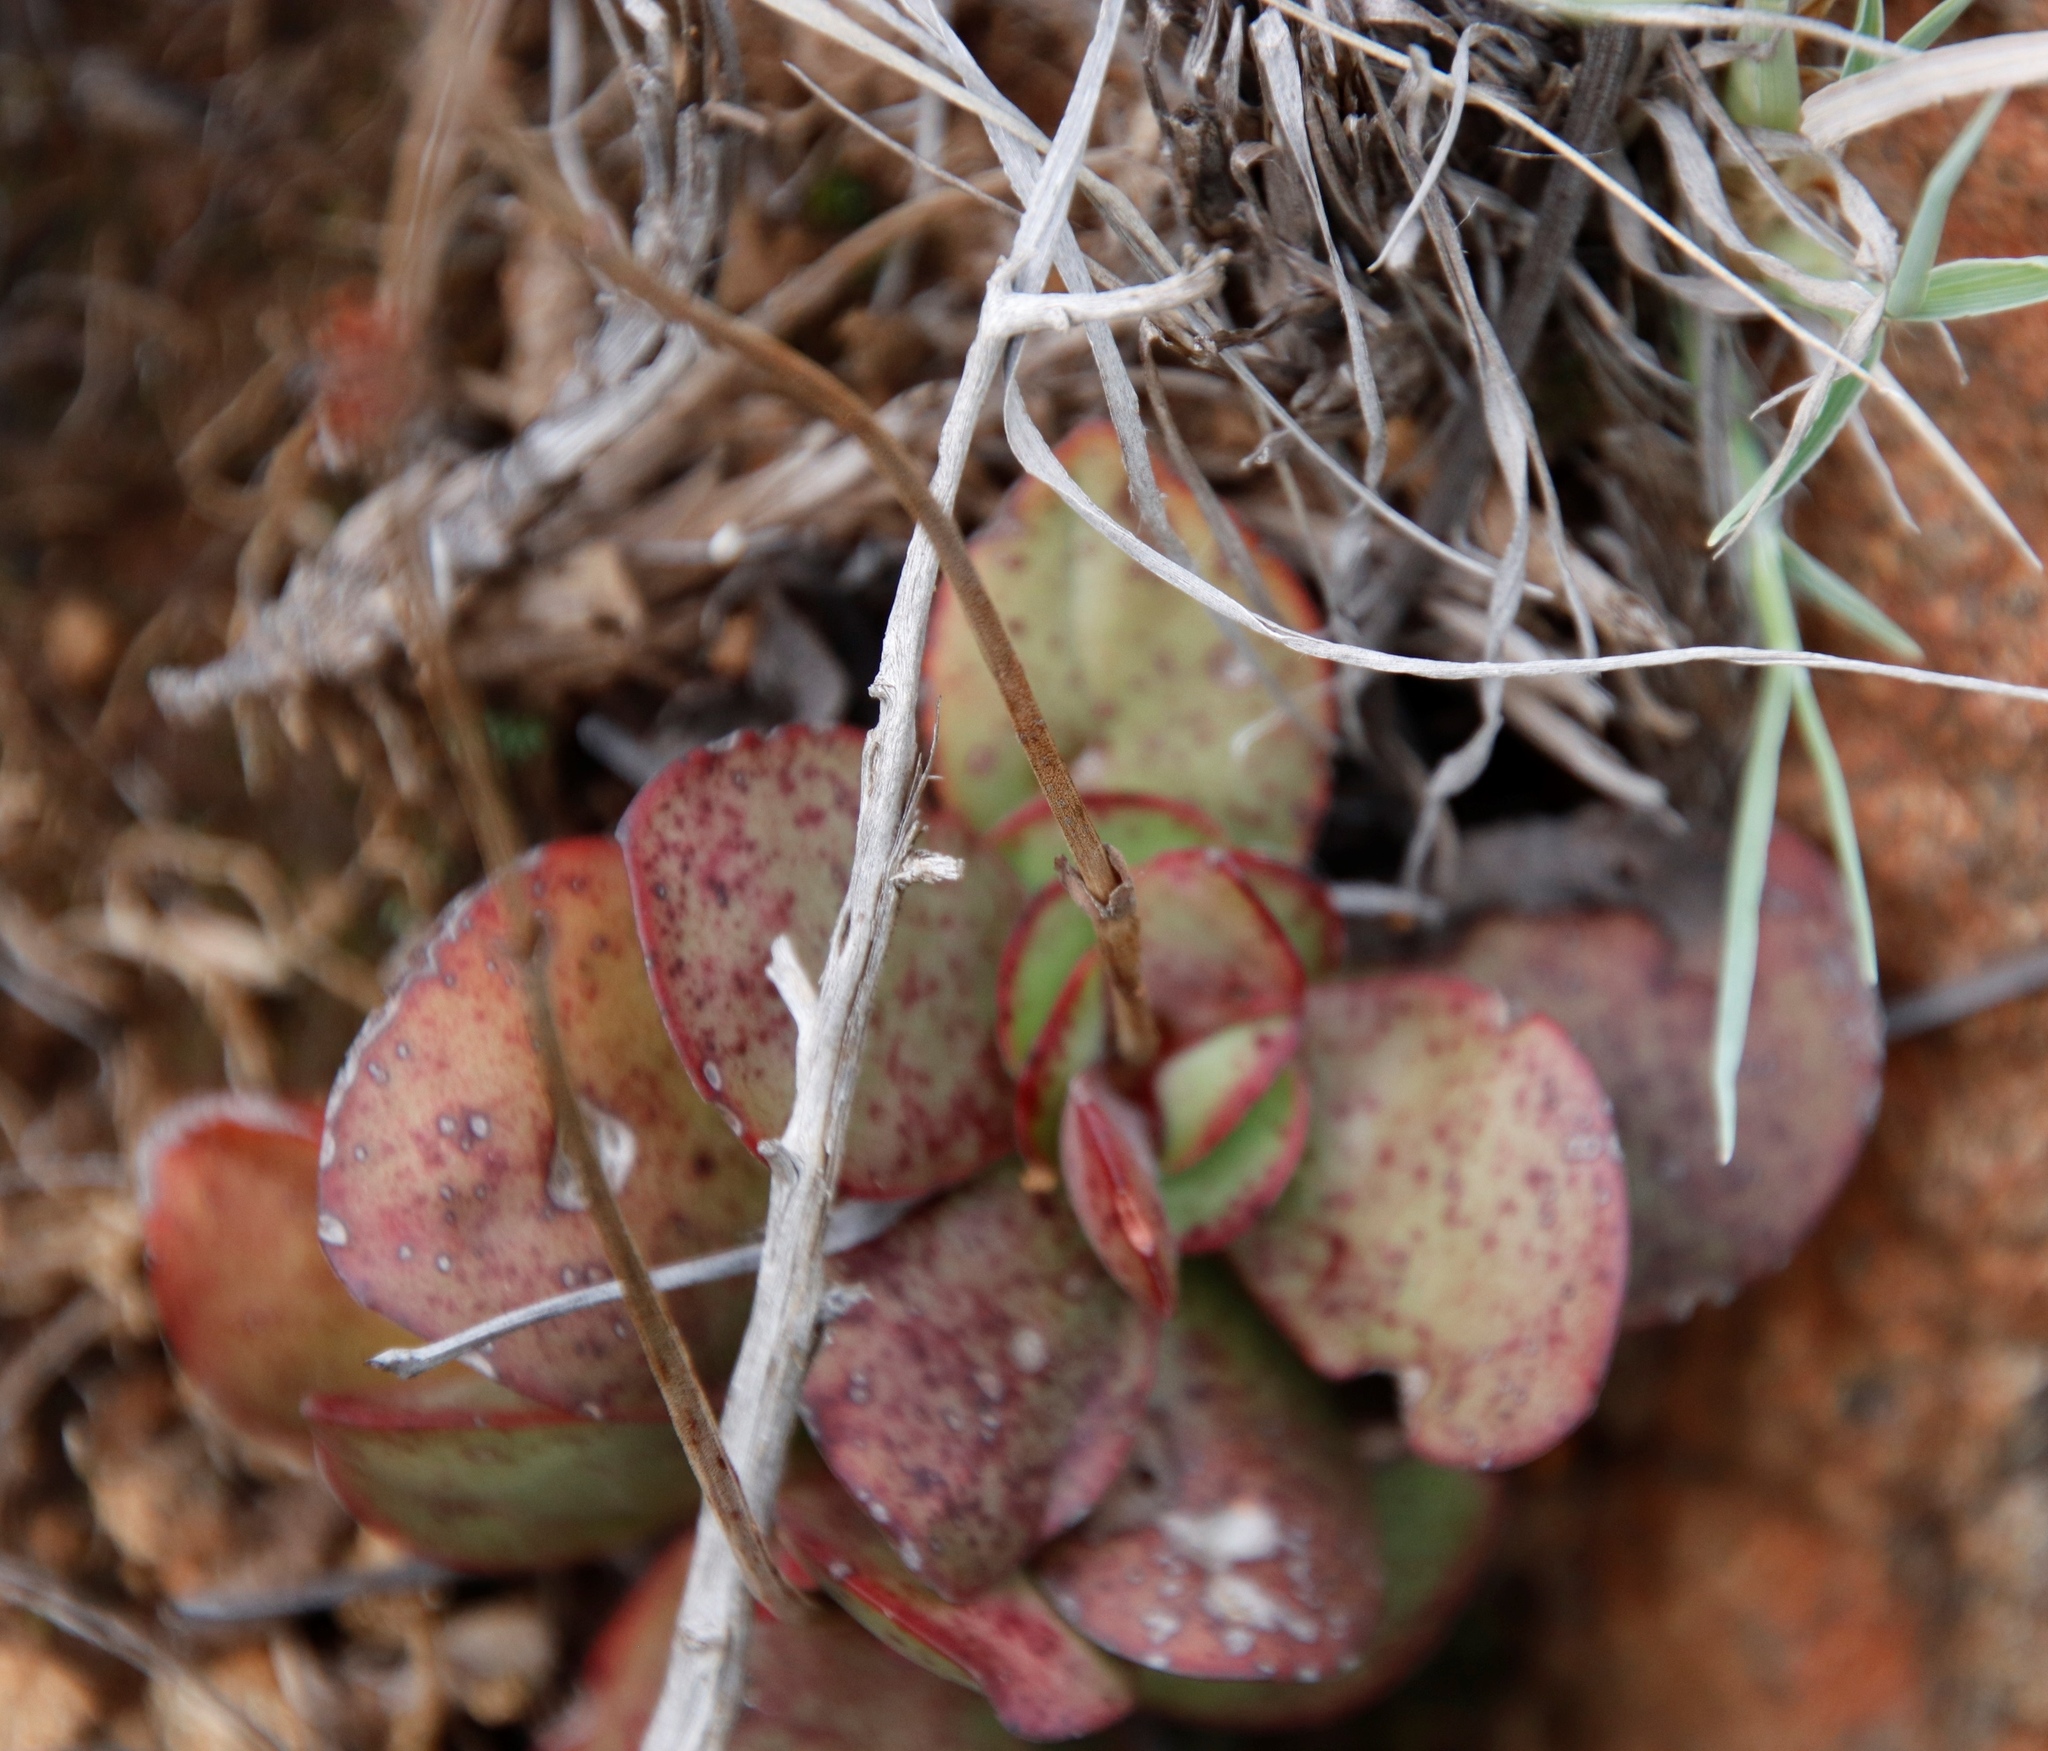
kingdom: Plantae
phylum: Tracheophyta
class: Magnoliopsida
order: Saxifragales
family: Crassulaceae
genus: Crassula
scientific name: Crassula pubescens
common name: Jersey pigmyweed
